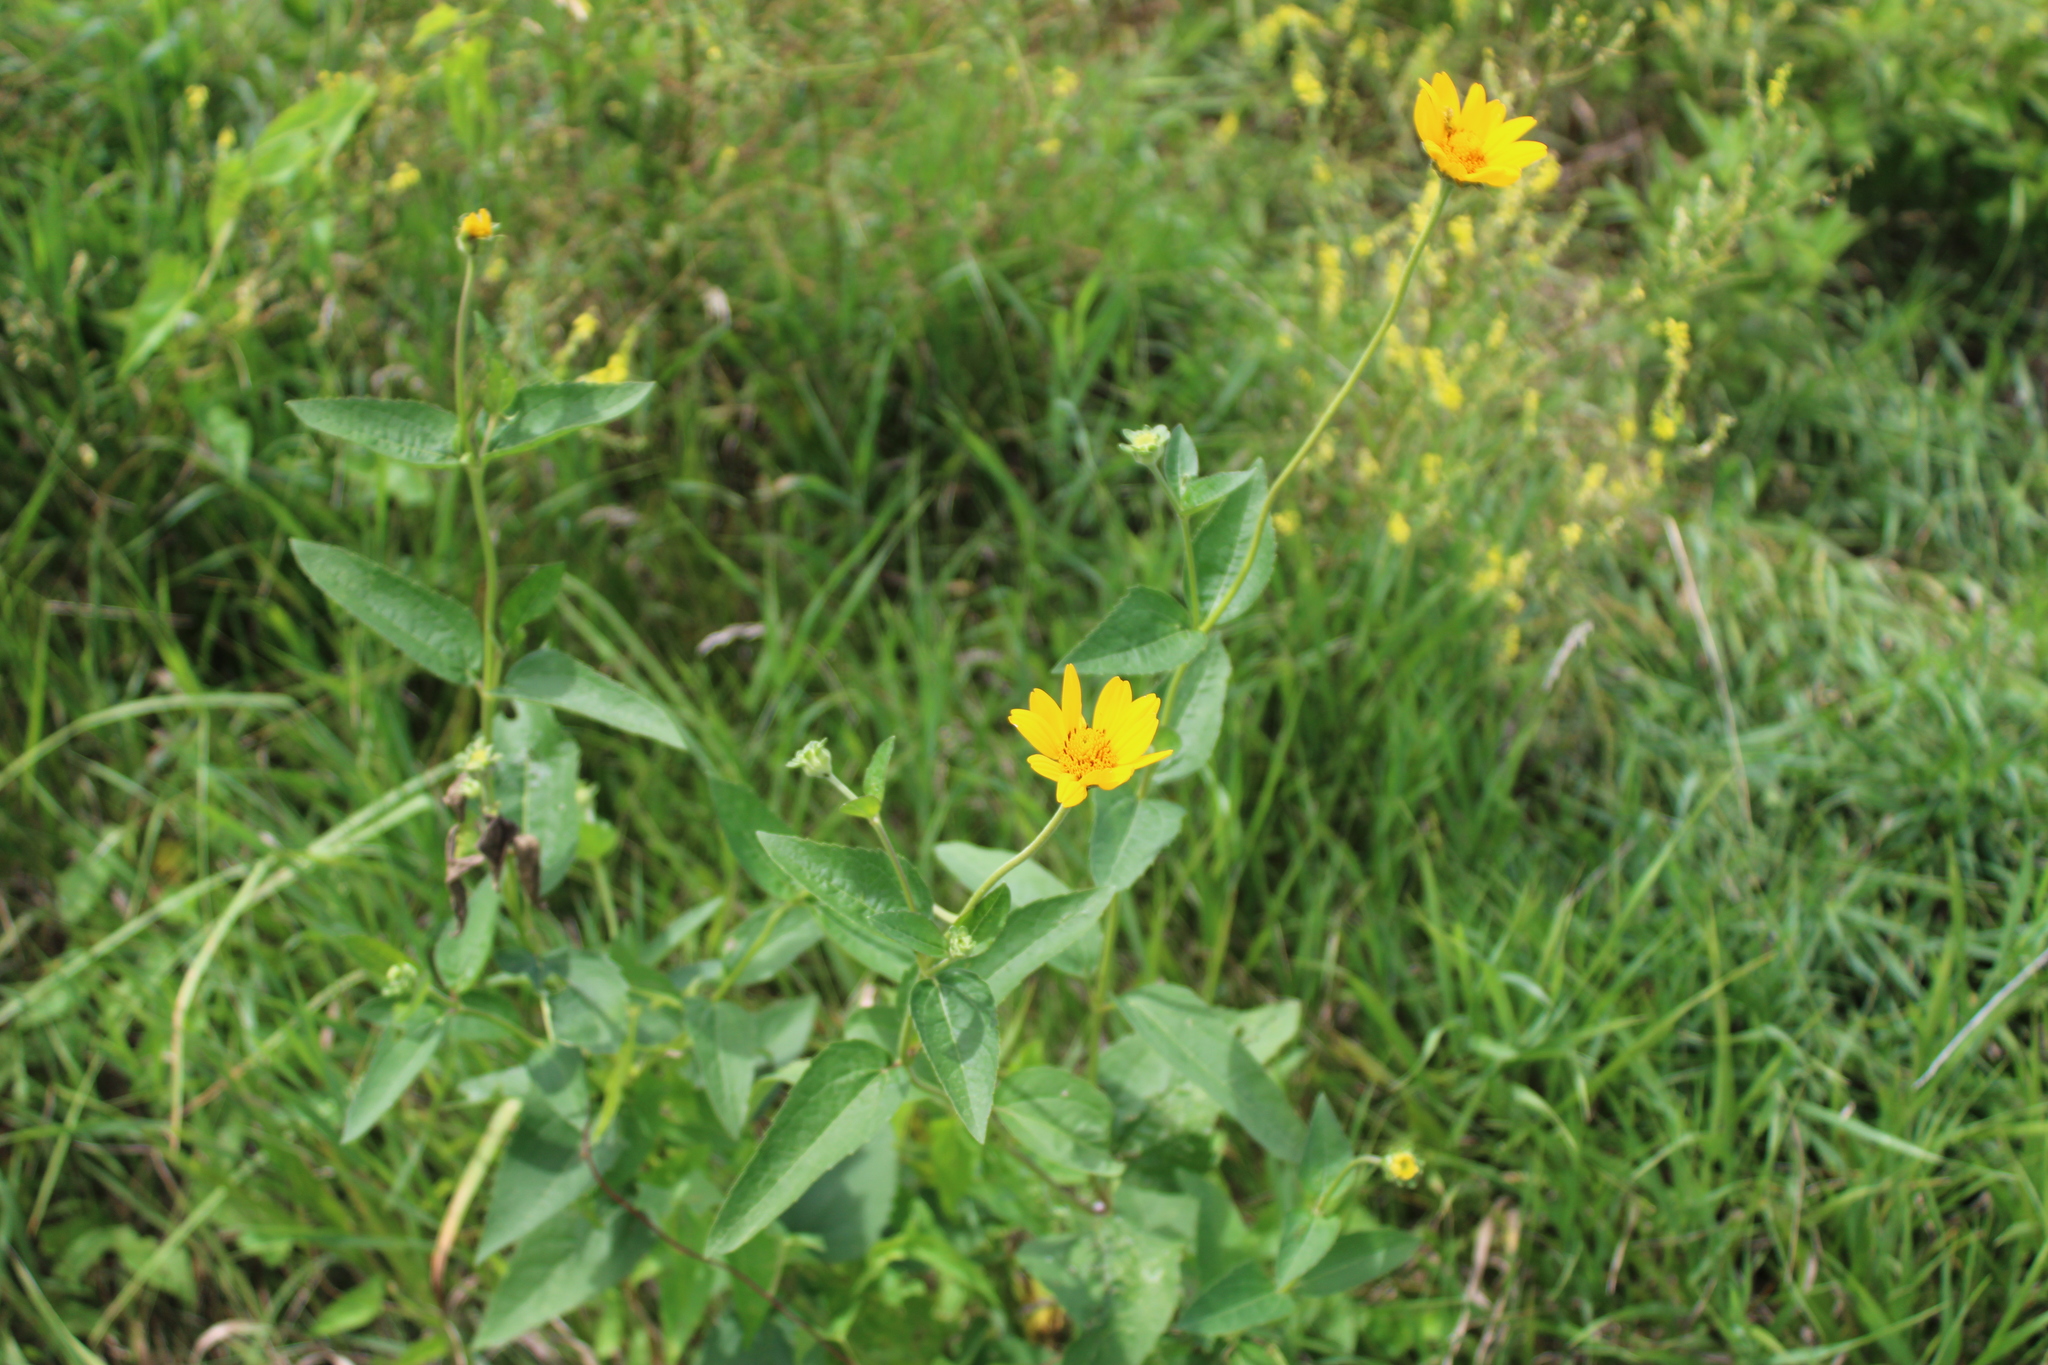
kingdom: Plantae
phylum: Tracheophyta
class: Magnoliopsida
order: Asterales
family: Asteraceae
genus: Heliopsis
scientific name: Heliopsis helianthoides
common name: False sunflower
